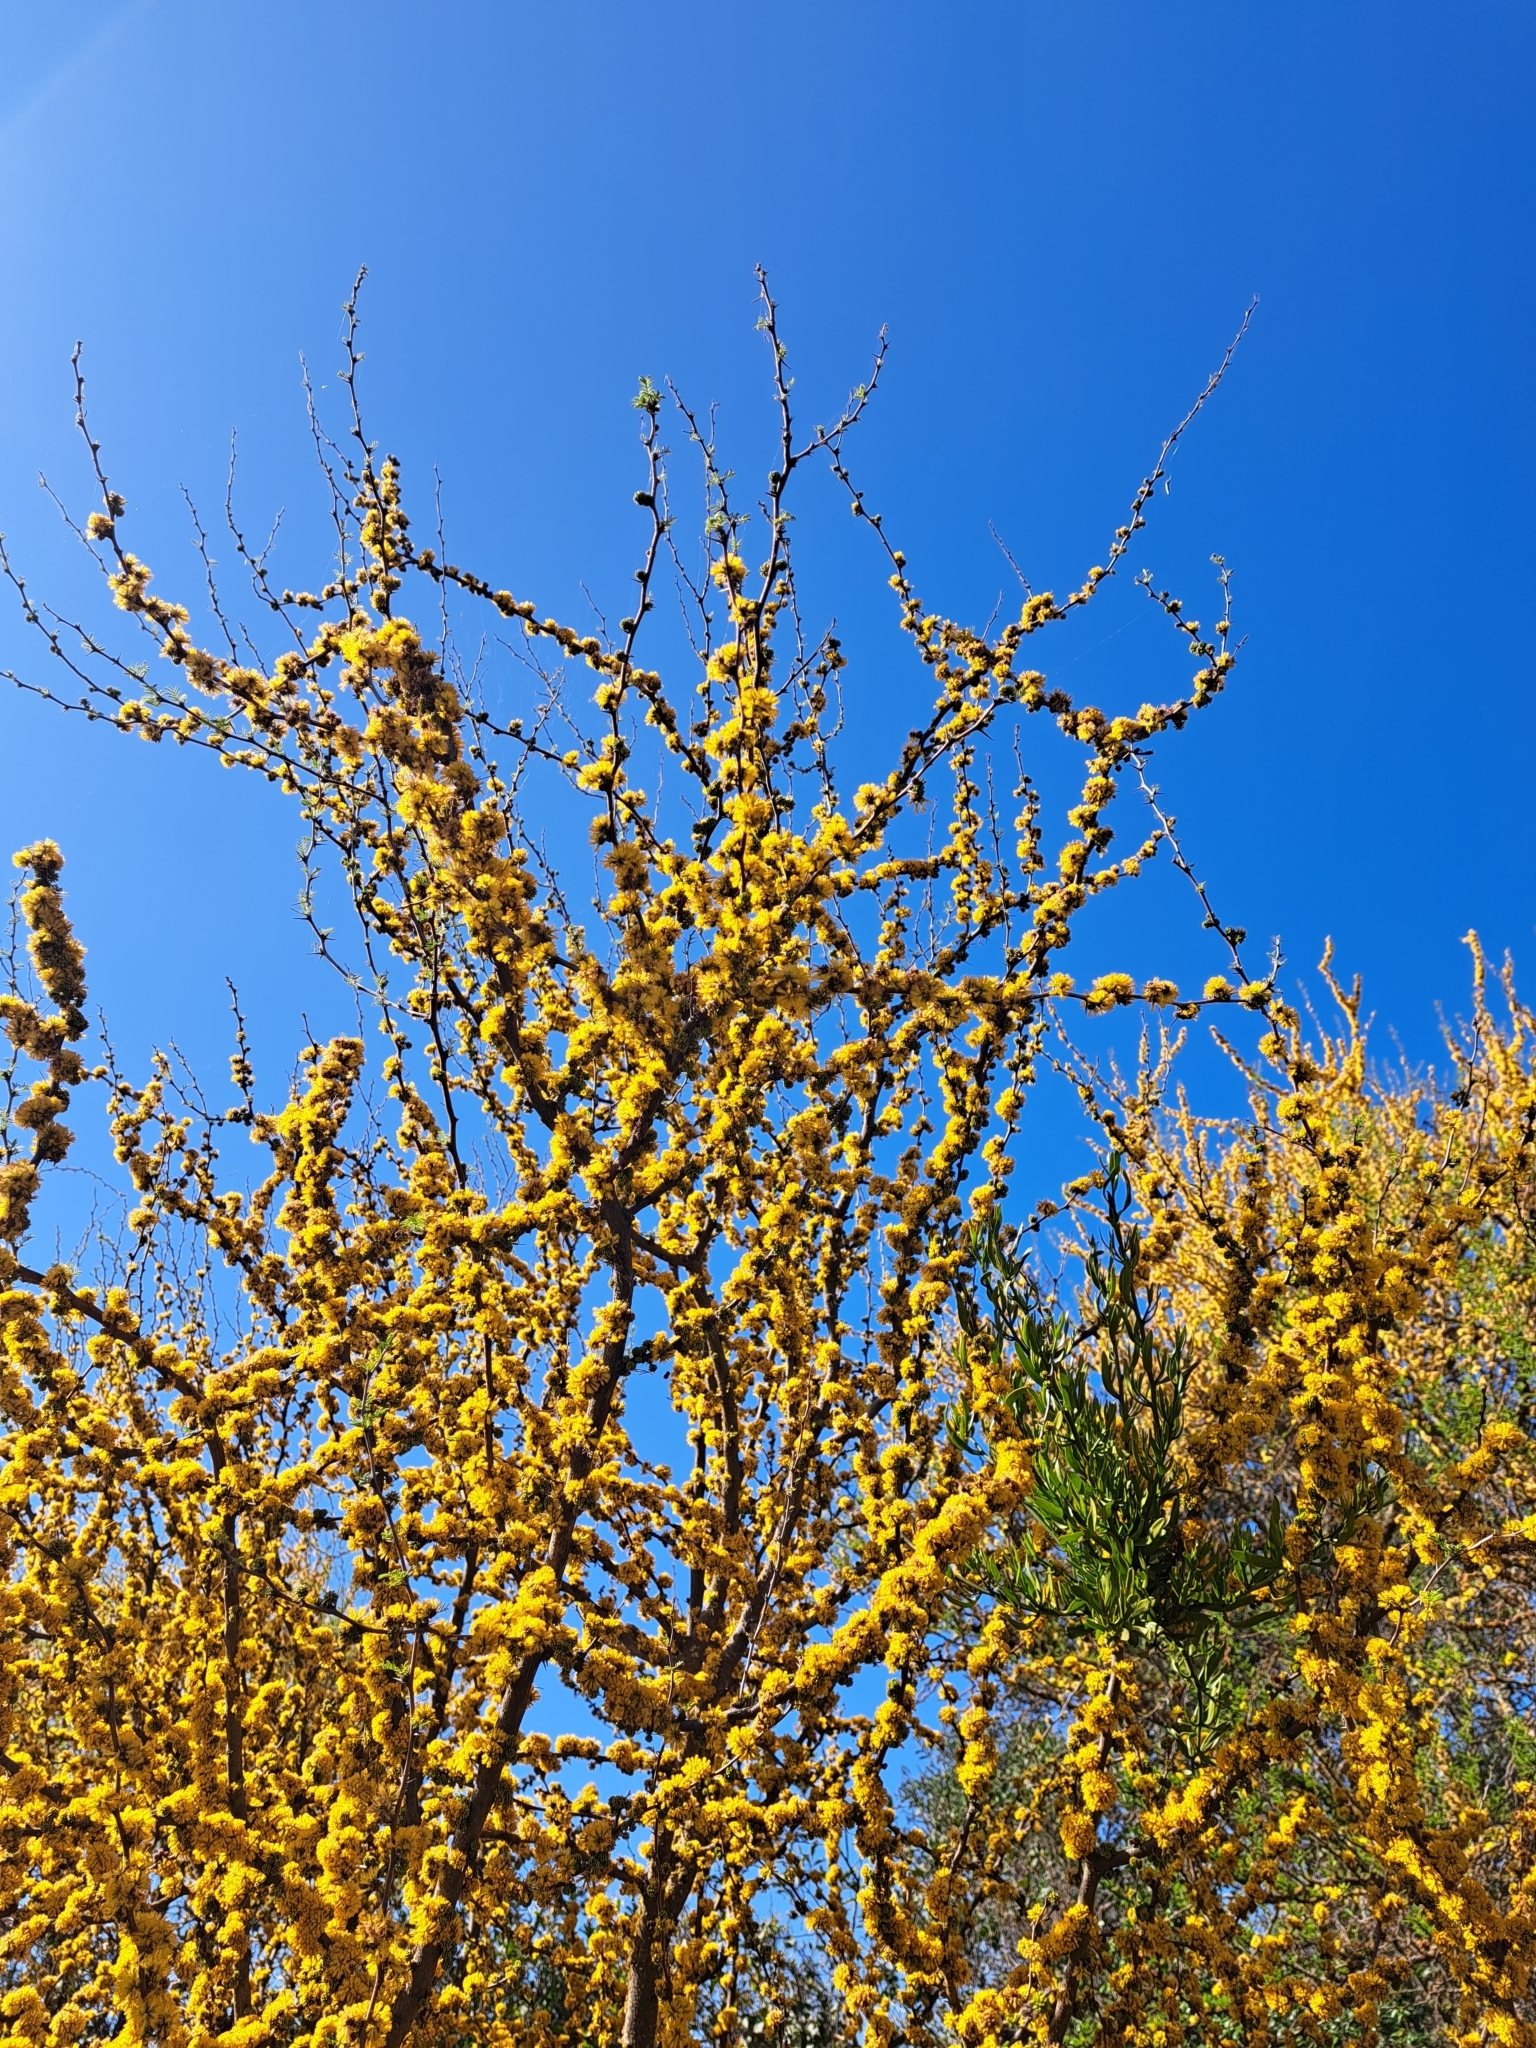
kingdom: Plantae
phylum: Tracheophyta
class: Magnoliopsida
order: Fabales
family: Fabaceae
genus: Vachellia
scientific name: Vachellia caven
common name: Roman cassie
